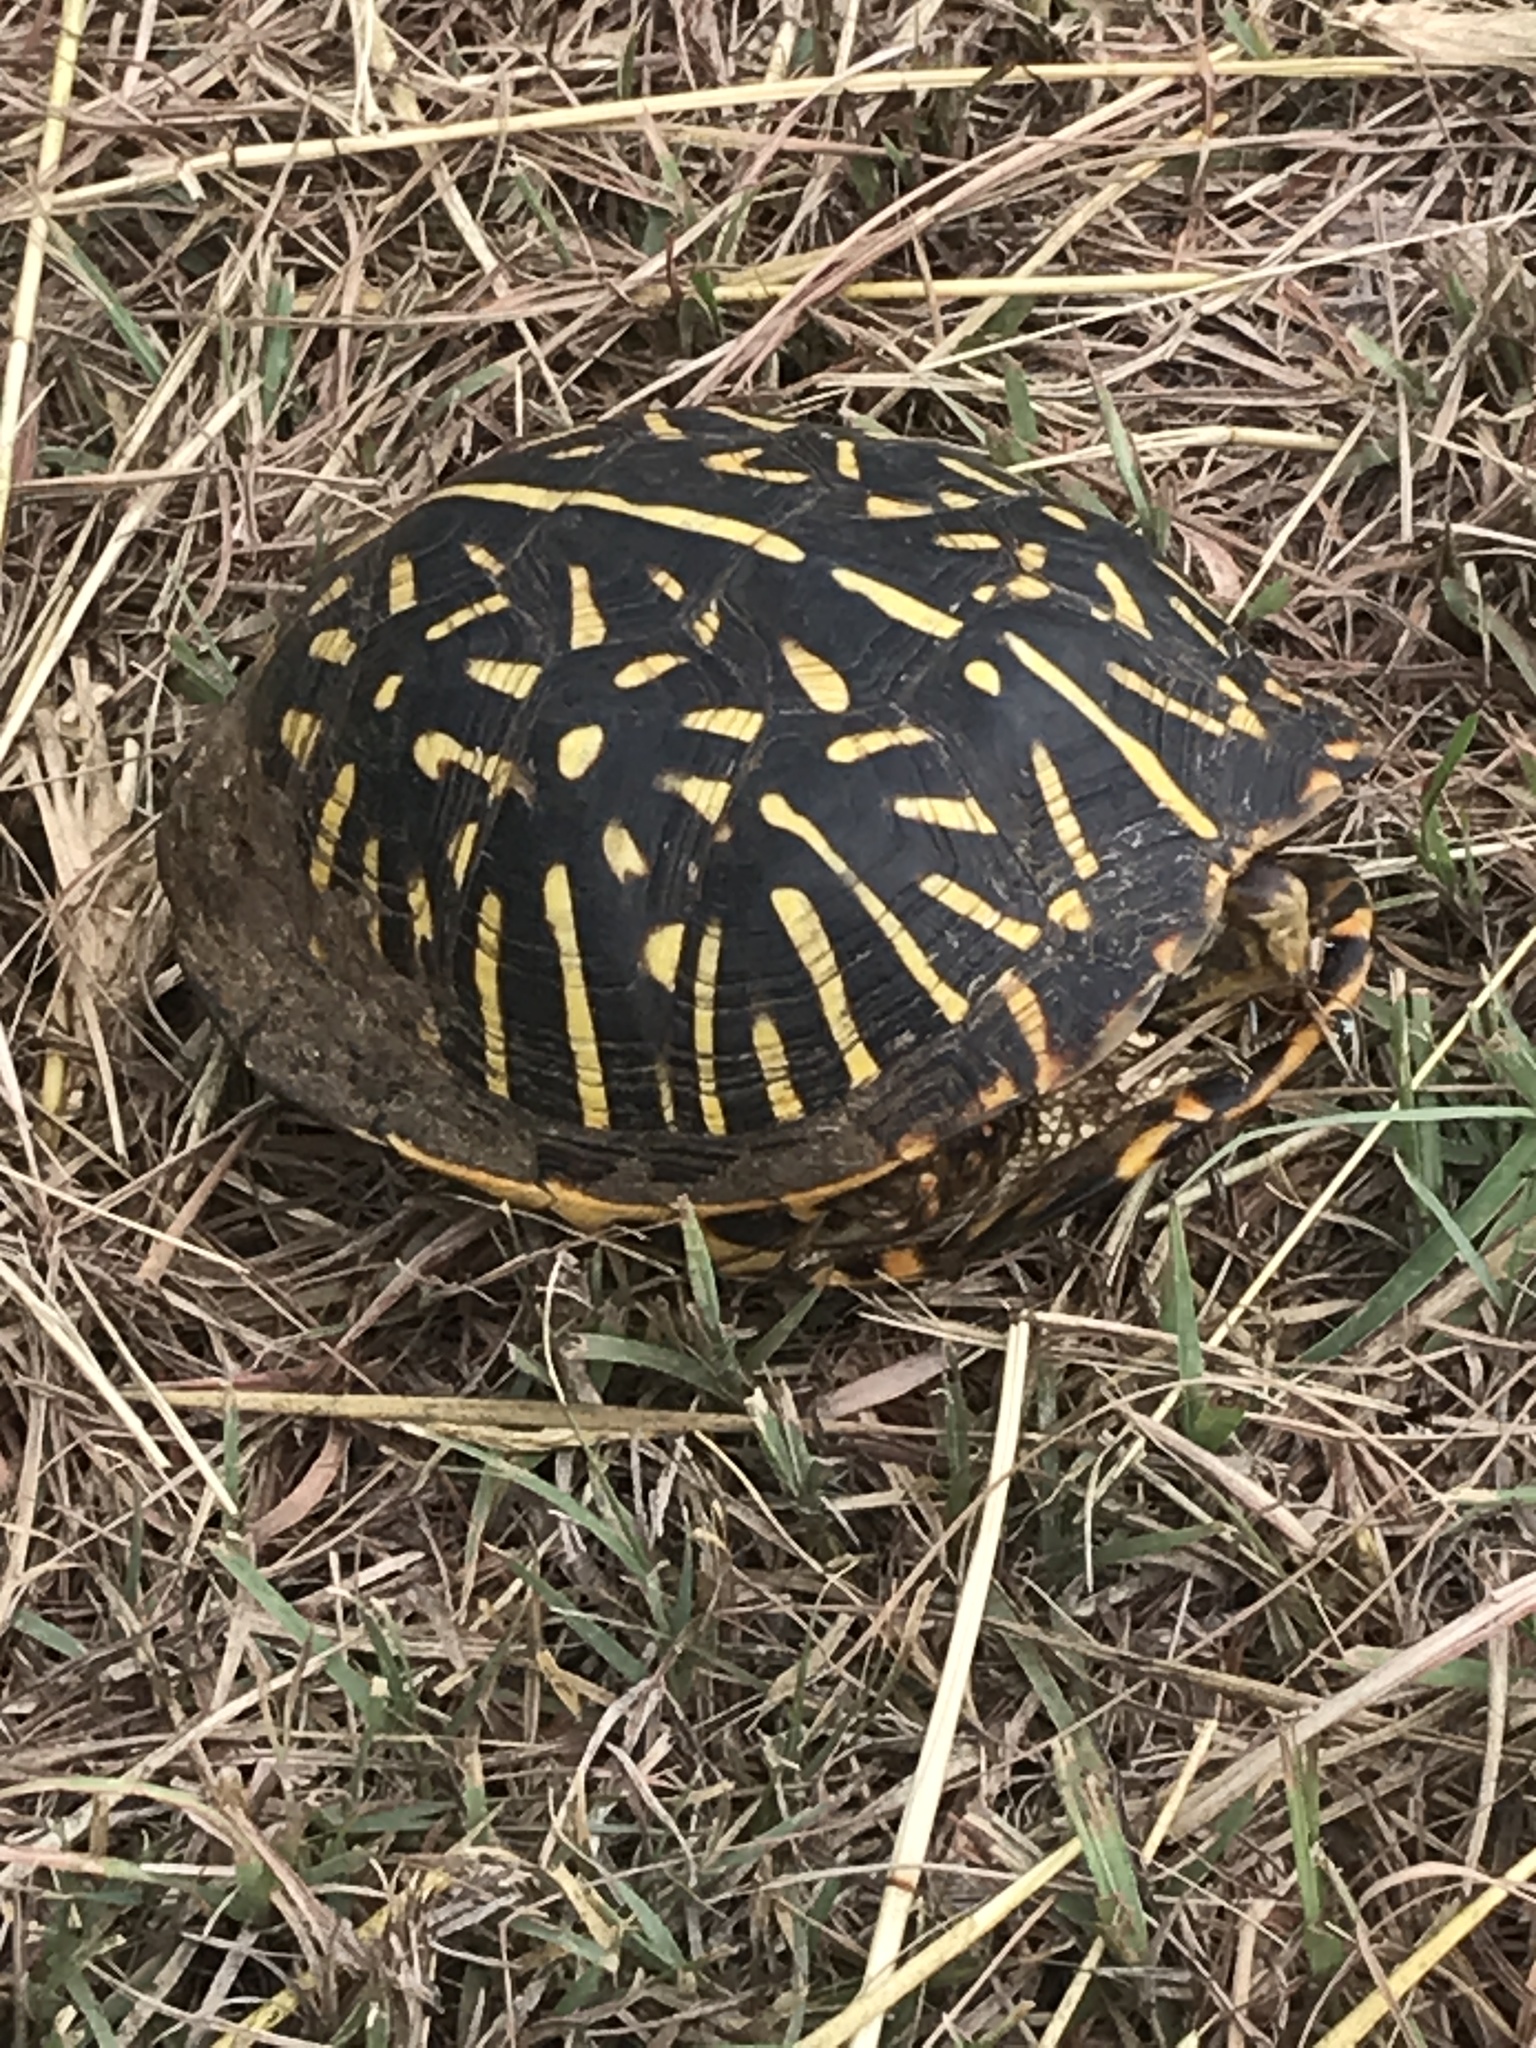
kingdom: Animalia
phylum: Chordata
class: Testudines
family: Emydidae
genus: Terrapene
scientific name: Terrapene ornata
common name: Western box turtle
